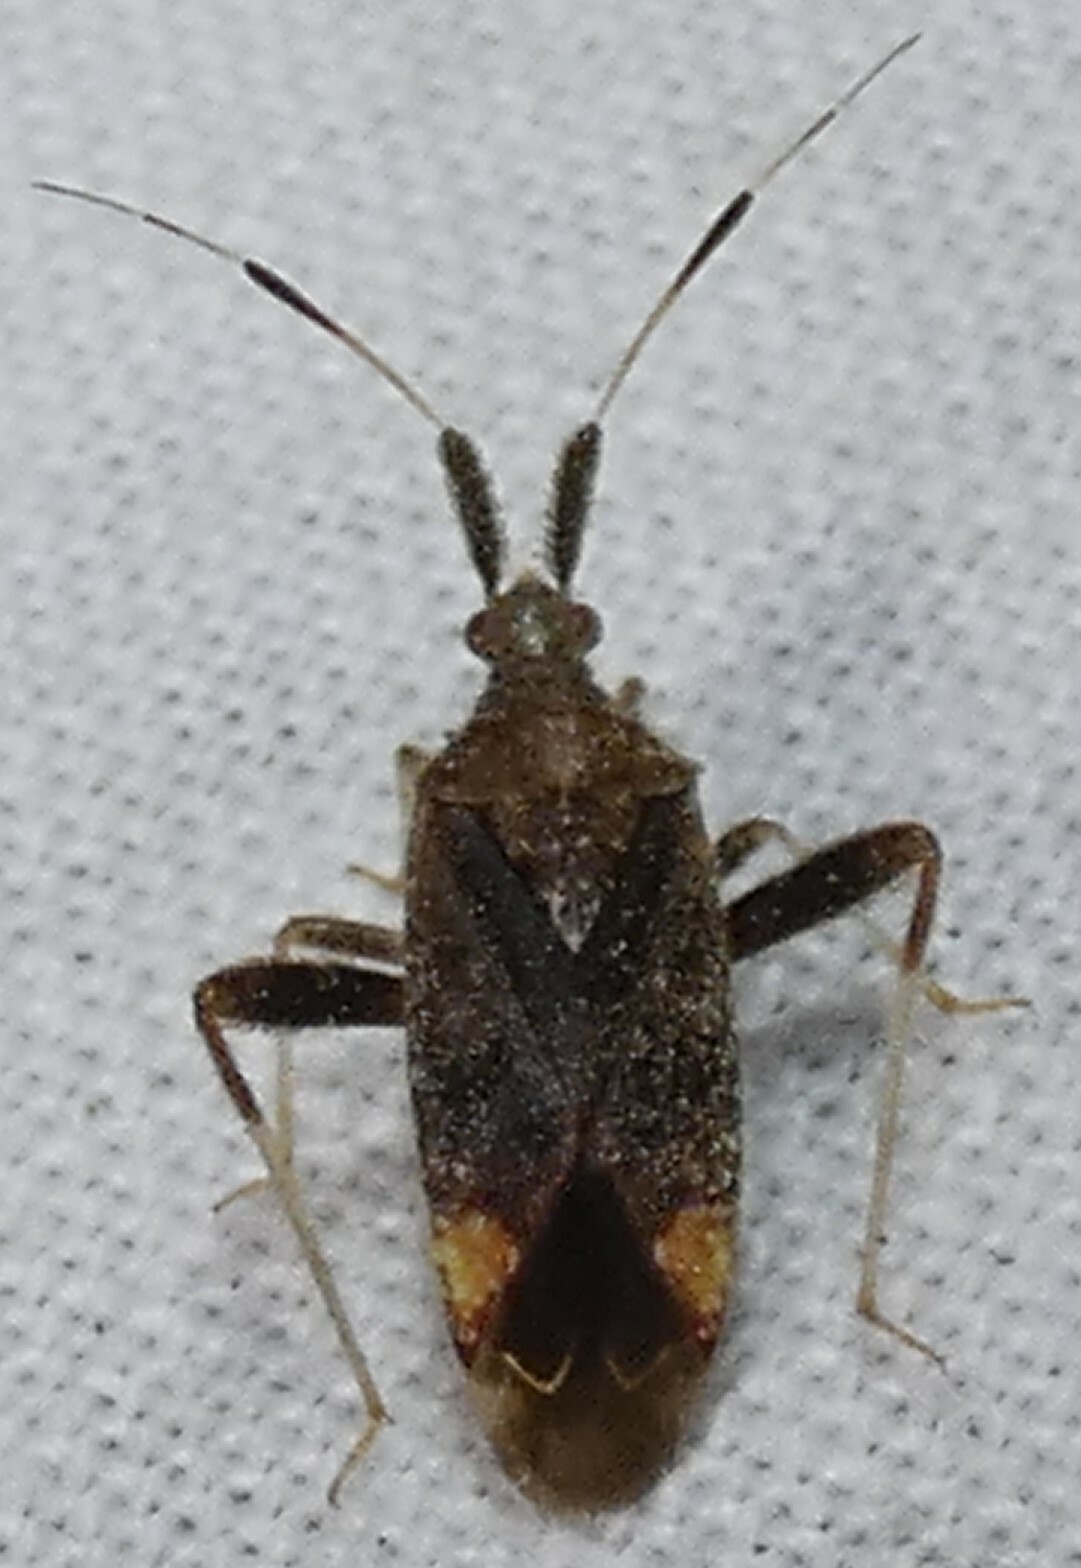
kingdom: Animalia
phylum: Arthropoda
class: Insecta
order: Hemiptera
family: Miridae
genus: Neurocolpus
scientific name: Neurocolpus nubilus
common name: Clouded plant bug
